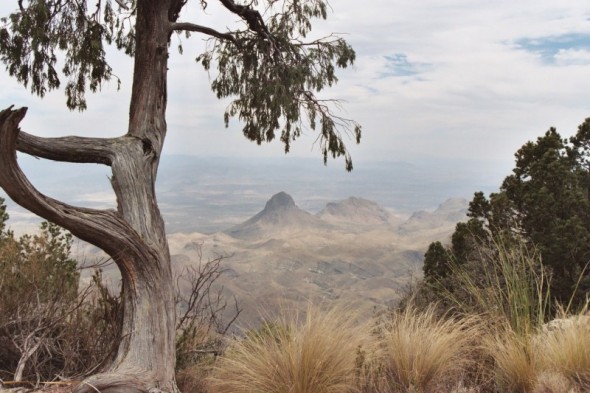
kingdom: Plantae
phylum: Tracheophyta
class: Pinopsida
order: Pinales
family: Cupressaceae
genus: Juniperus
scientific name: Juniperus flaccida
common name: Drooping juniper
